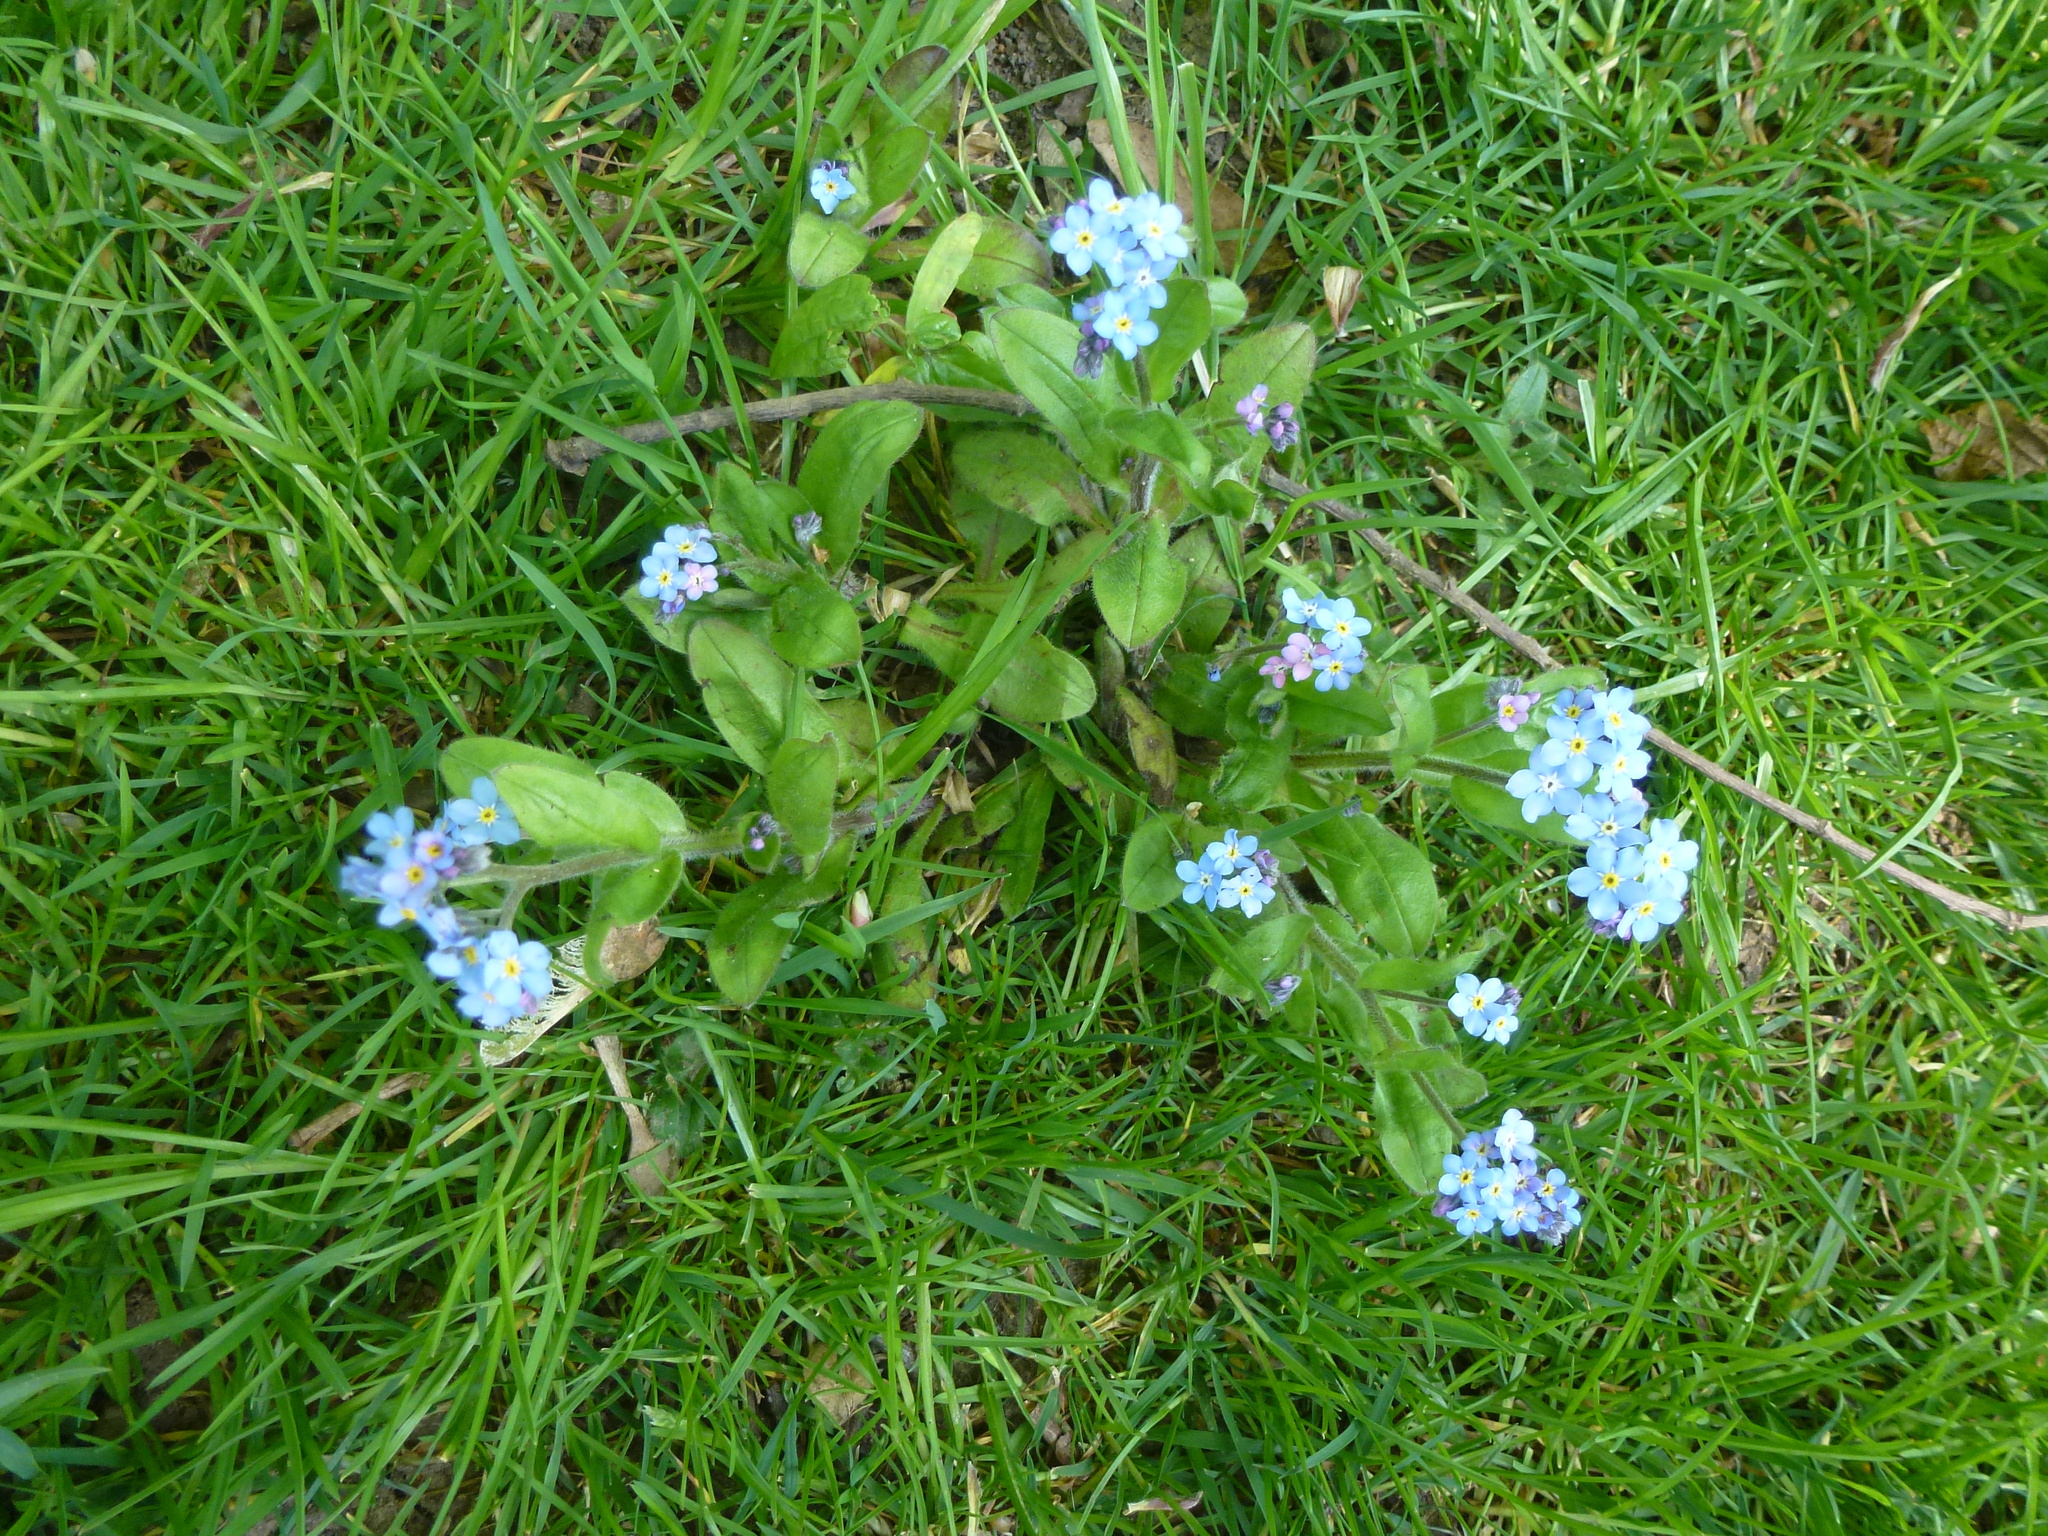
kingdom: Plantae
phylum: Tracheophyta
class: Magnoliopsida
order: Boraginales
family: Boraginaceae
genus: Myosotis
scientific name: Myosotis sylvatica
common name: Wood forget-me-not
